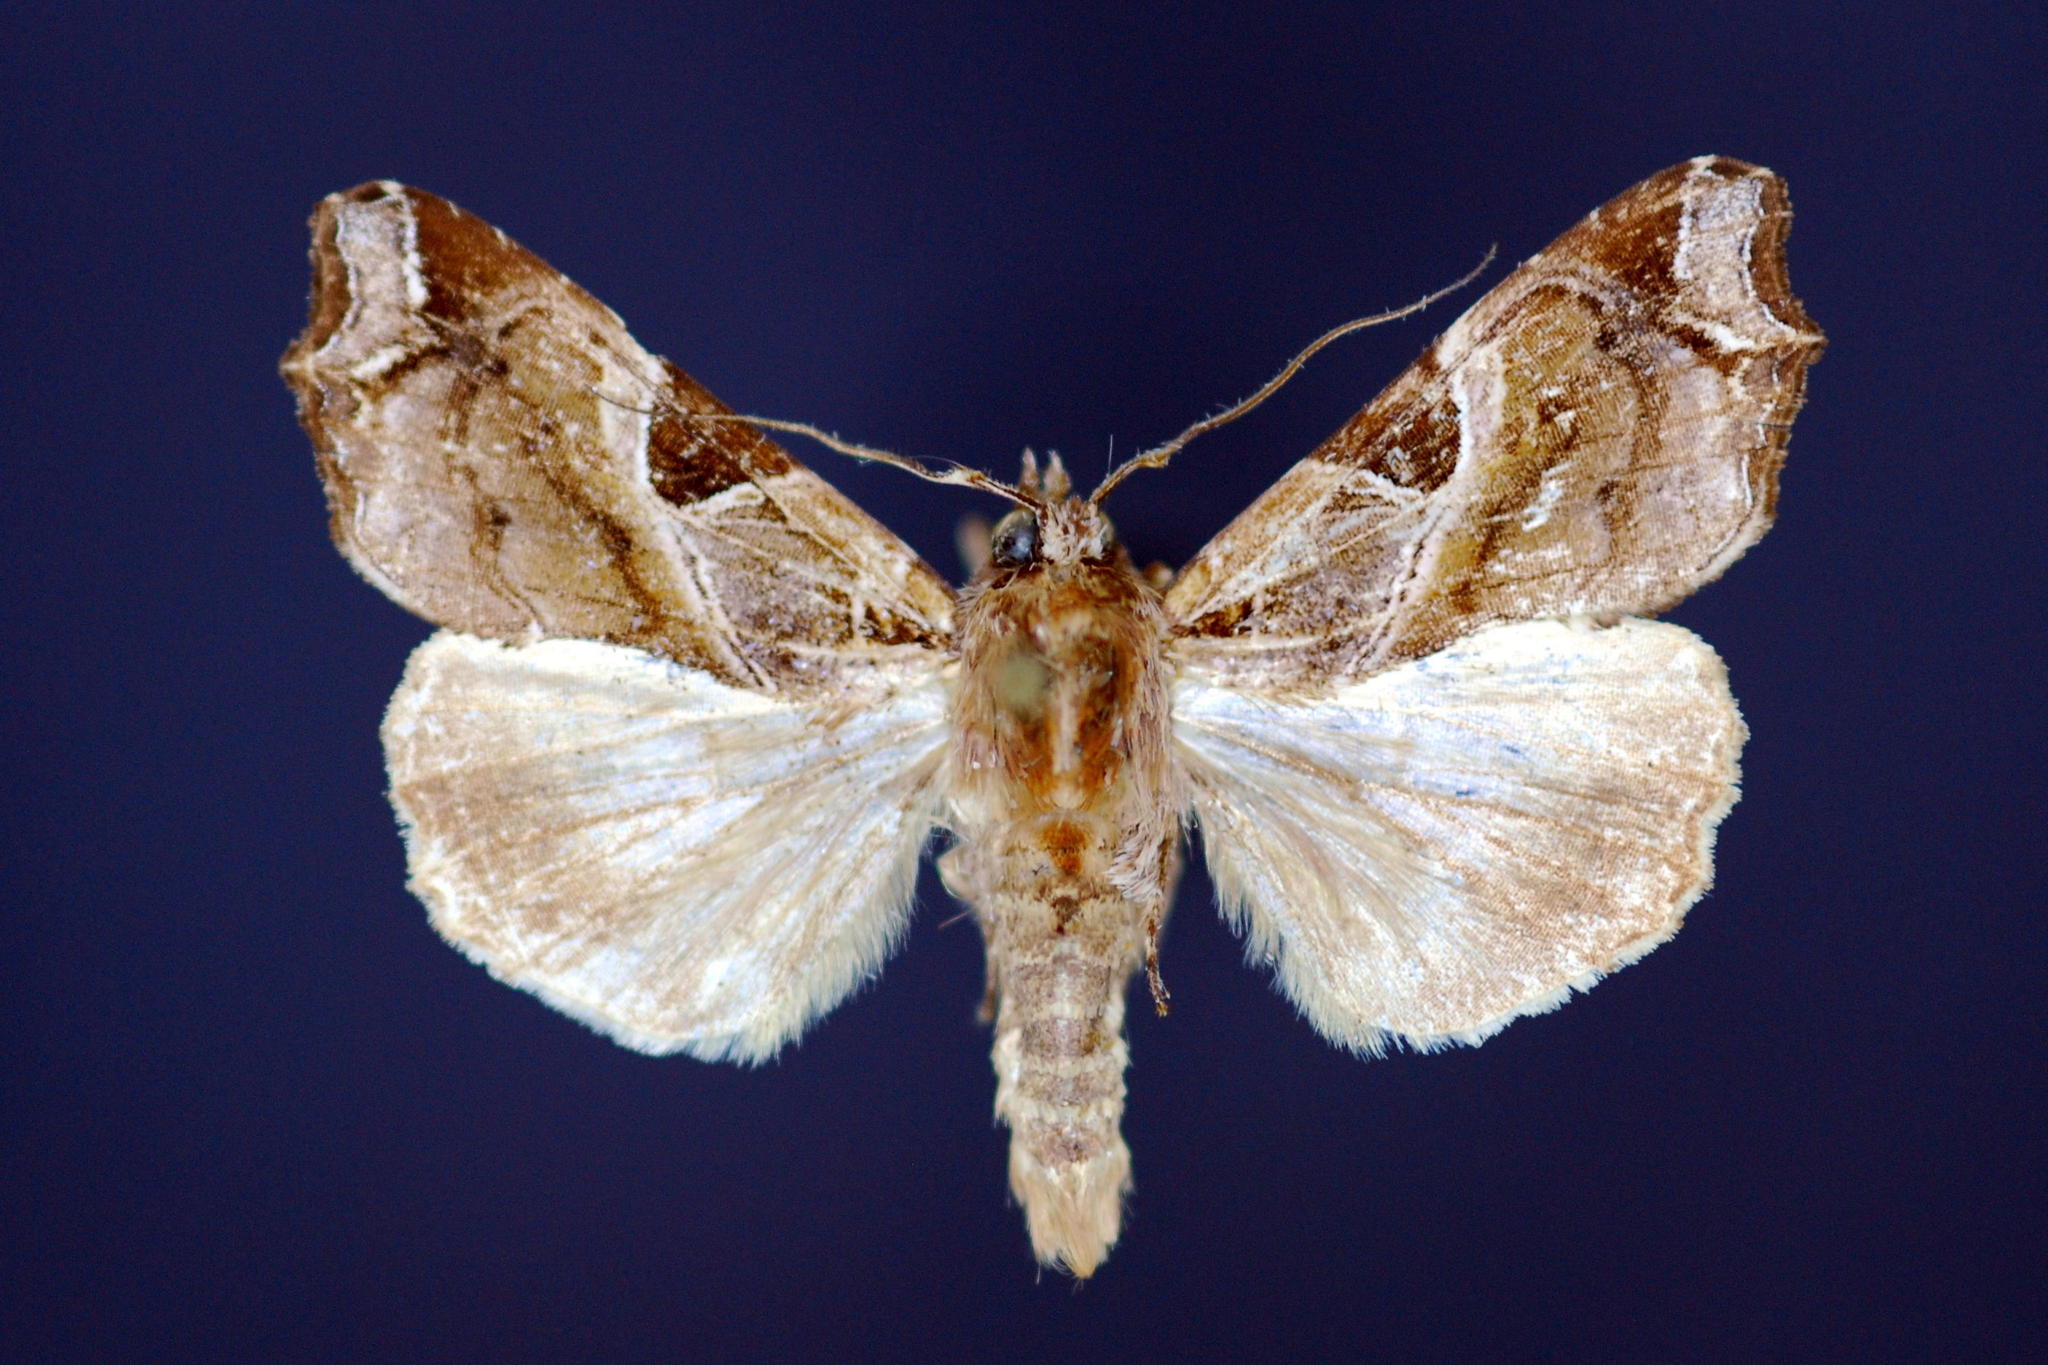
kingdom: Animalia
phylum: Arthropoda
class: Insecta
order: Lepidoptera
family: Noctuidae
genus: Callopistria
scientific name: Callopistria floridensis
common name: Florida fern moth
